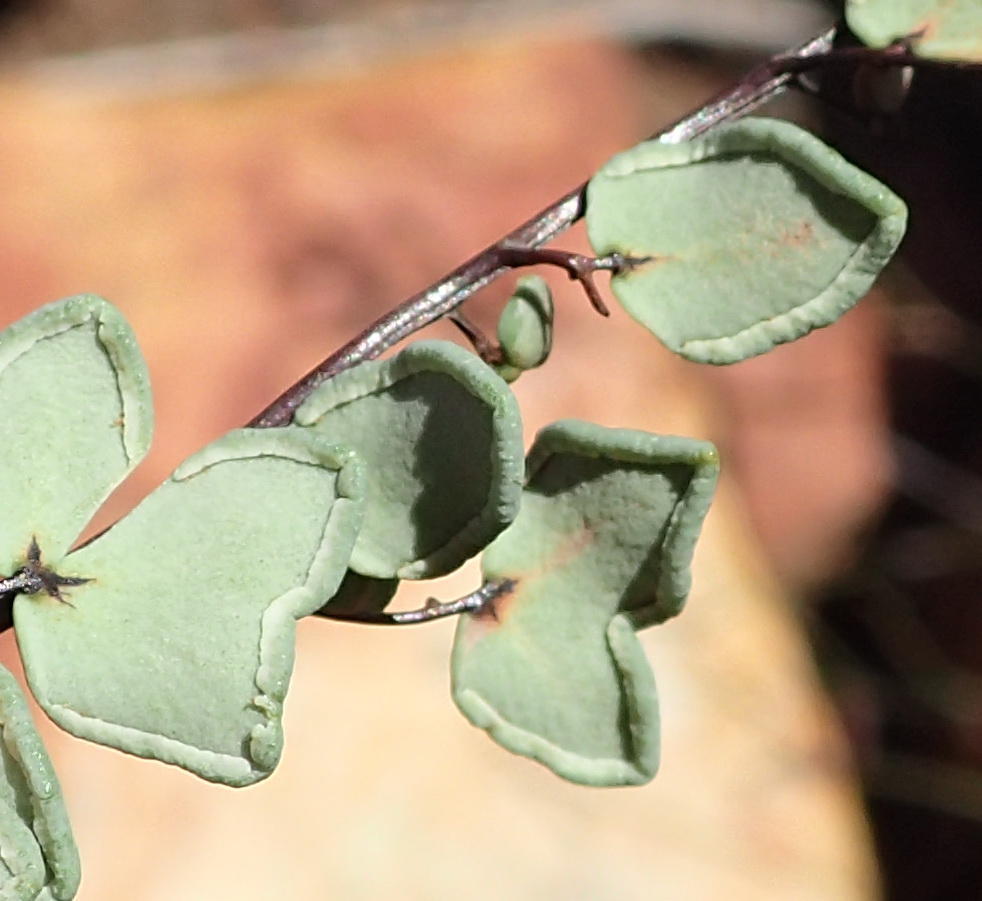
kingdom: Plantae
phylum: Tracheophyta
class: Polypodiopsida
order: Polypodiales
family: Pteridaceae
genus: Pellaea
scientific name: Pellaea calomelanos
